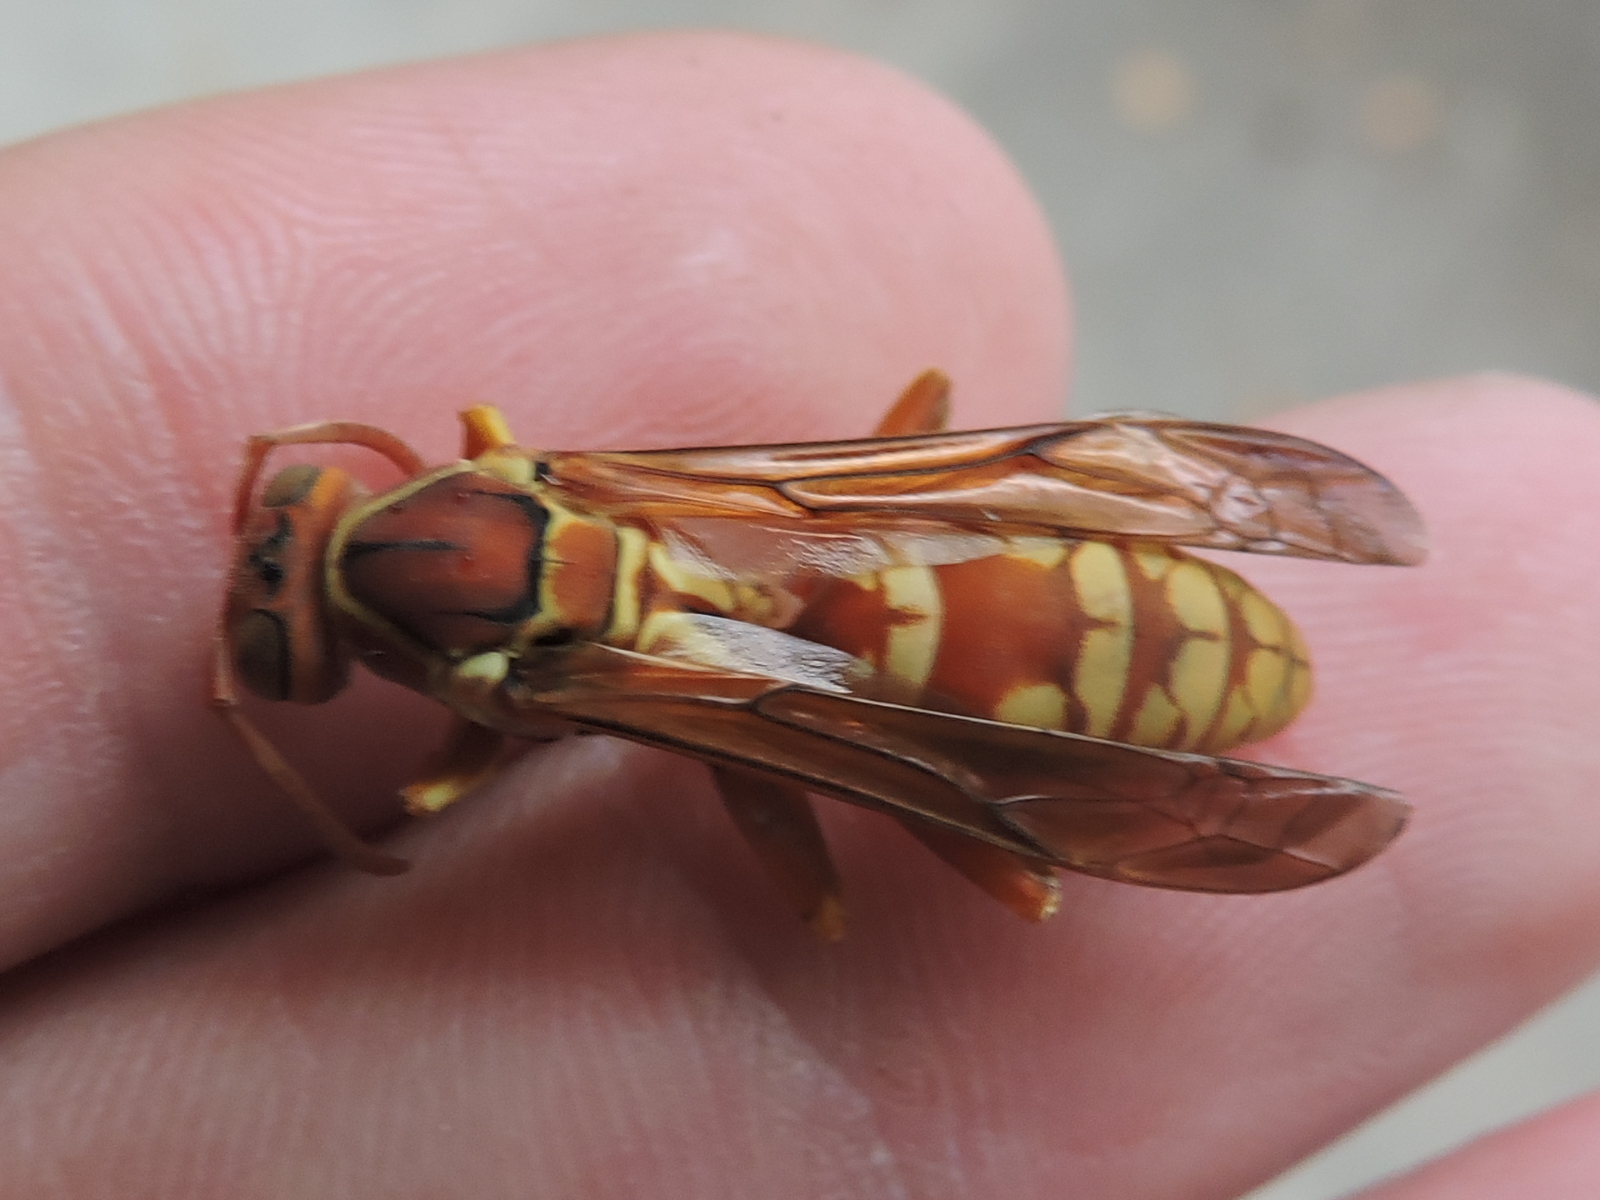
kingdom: Animalia
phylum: Arthropoda
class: Insecta
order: Hymenoptera
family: Eumenidae
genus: Polistes
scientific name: Polistes apachus
